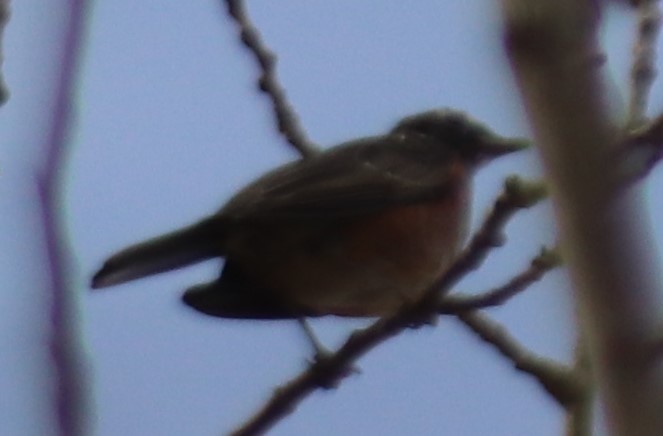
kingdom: Animalia
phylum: Chordata
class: Aves
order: Passeriformes
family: Turdidae
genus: Turdus
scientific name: Turdus migratorius
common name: American robin
